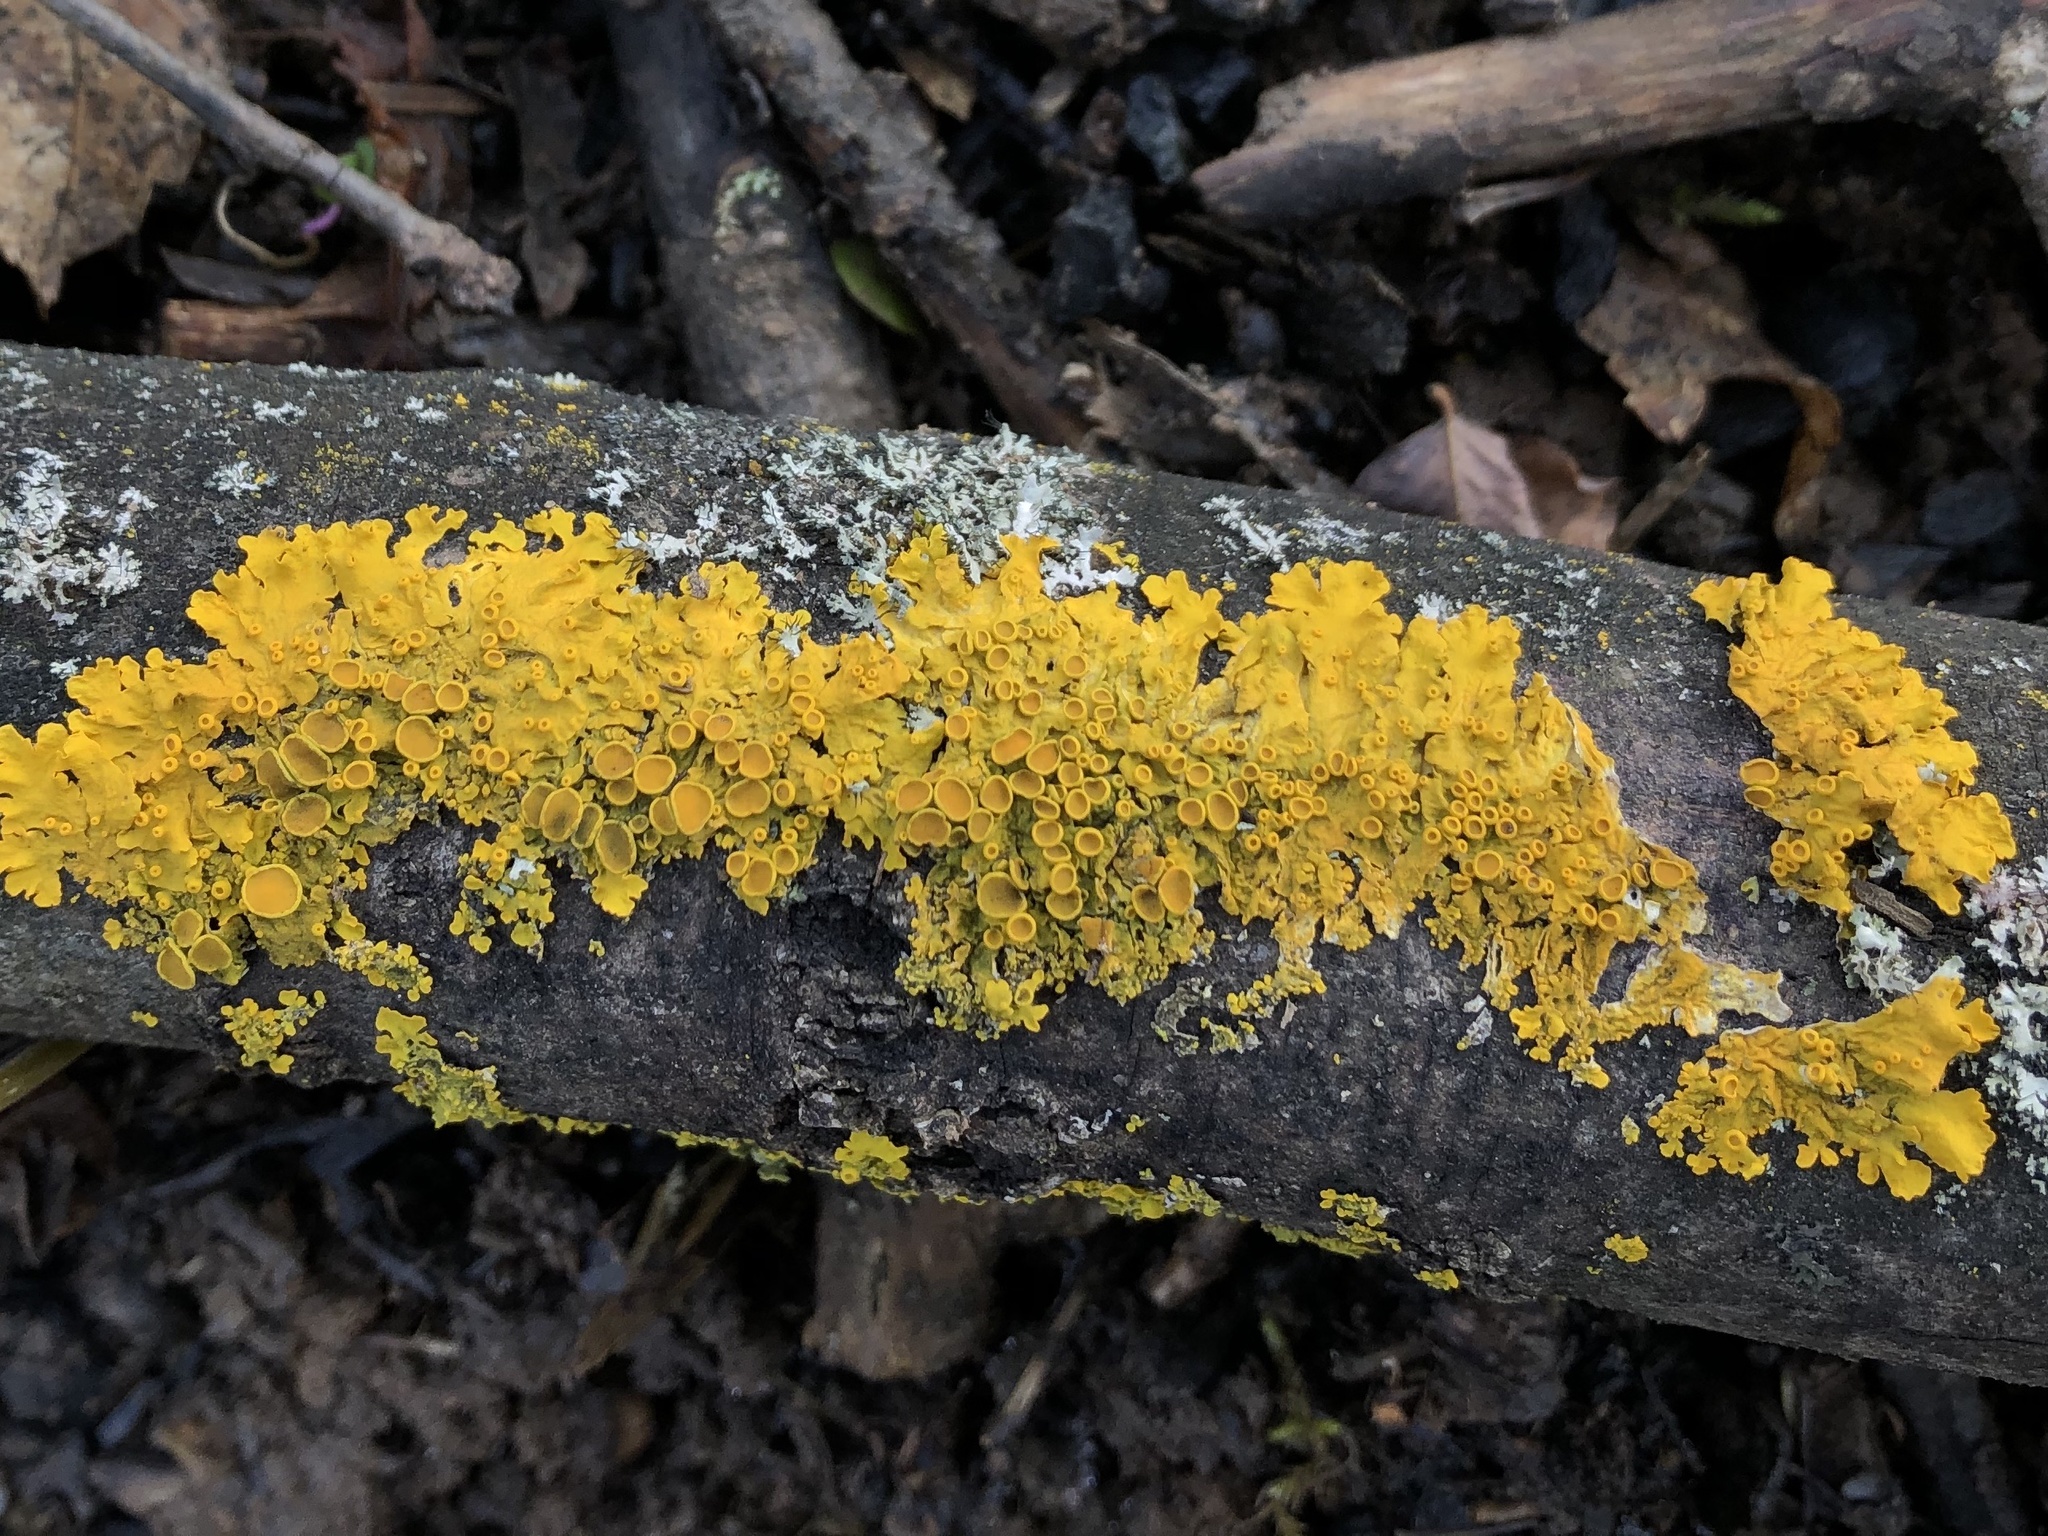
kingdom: Fungi
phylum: Ascomycota
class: Lecanoromycetes
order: Teloschistales
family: Teloschistaceae
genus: Xanthoria
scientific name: Xanthoria parietina
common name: Common orange lichen
